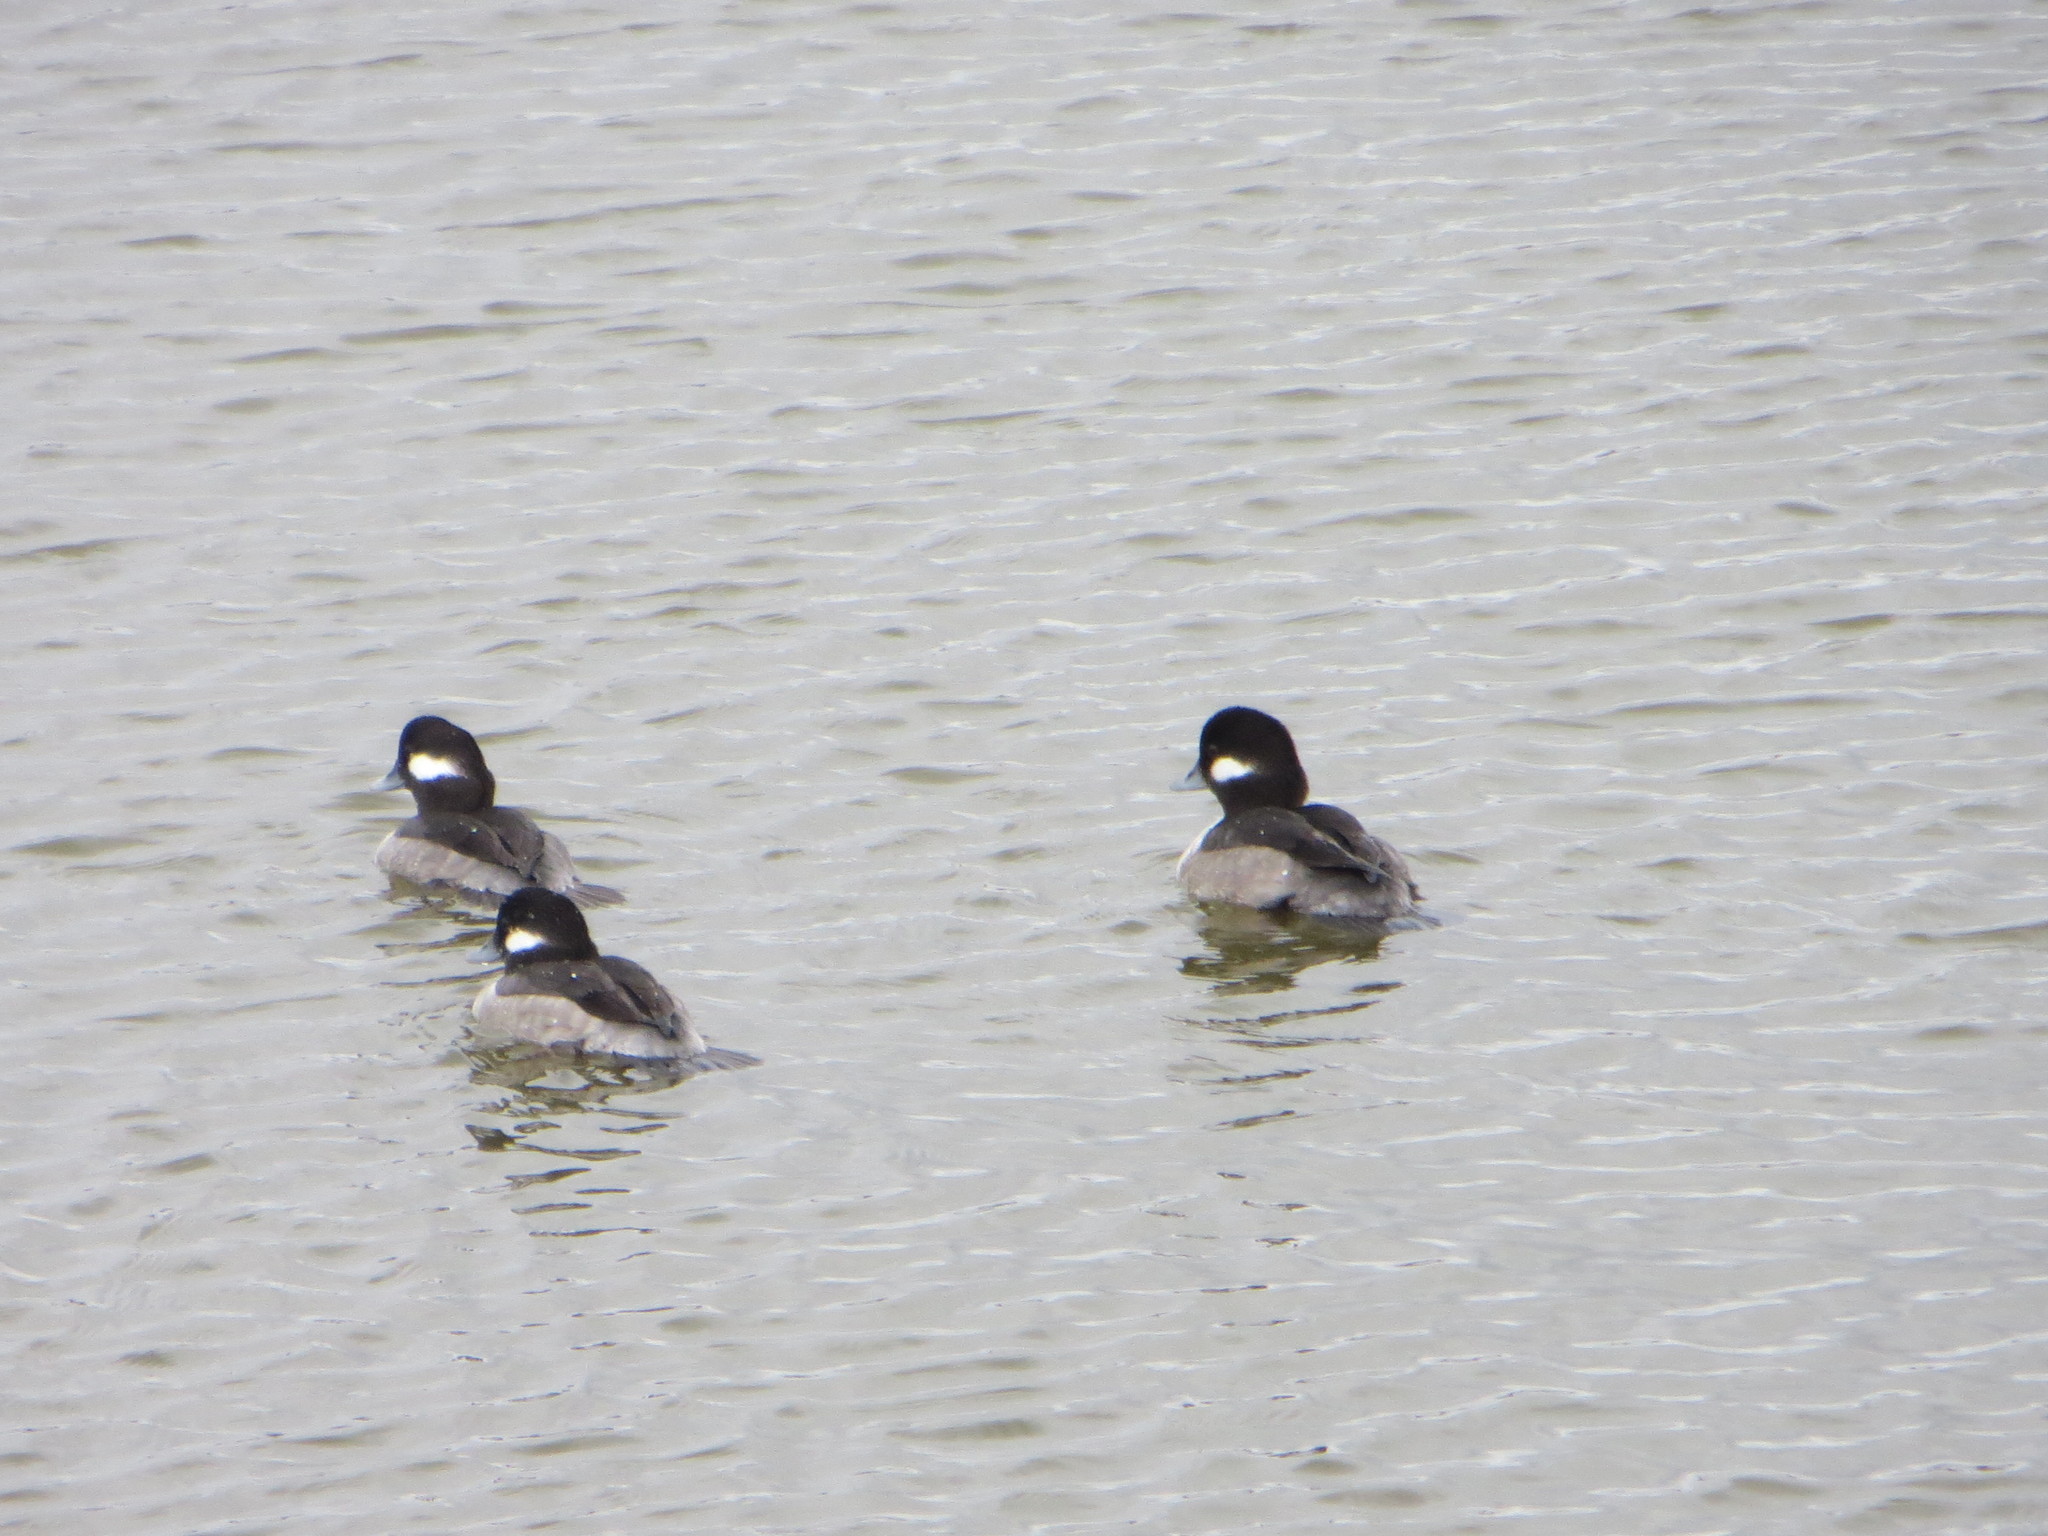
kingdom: Animalia
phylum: Chordata
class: Aves
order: Anseriformes
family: Anatidae
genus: Bucephala
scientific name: Bucephala albeola
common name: Bufflehead
